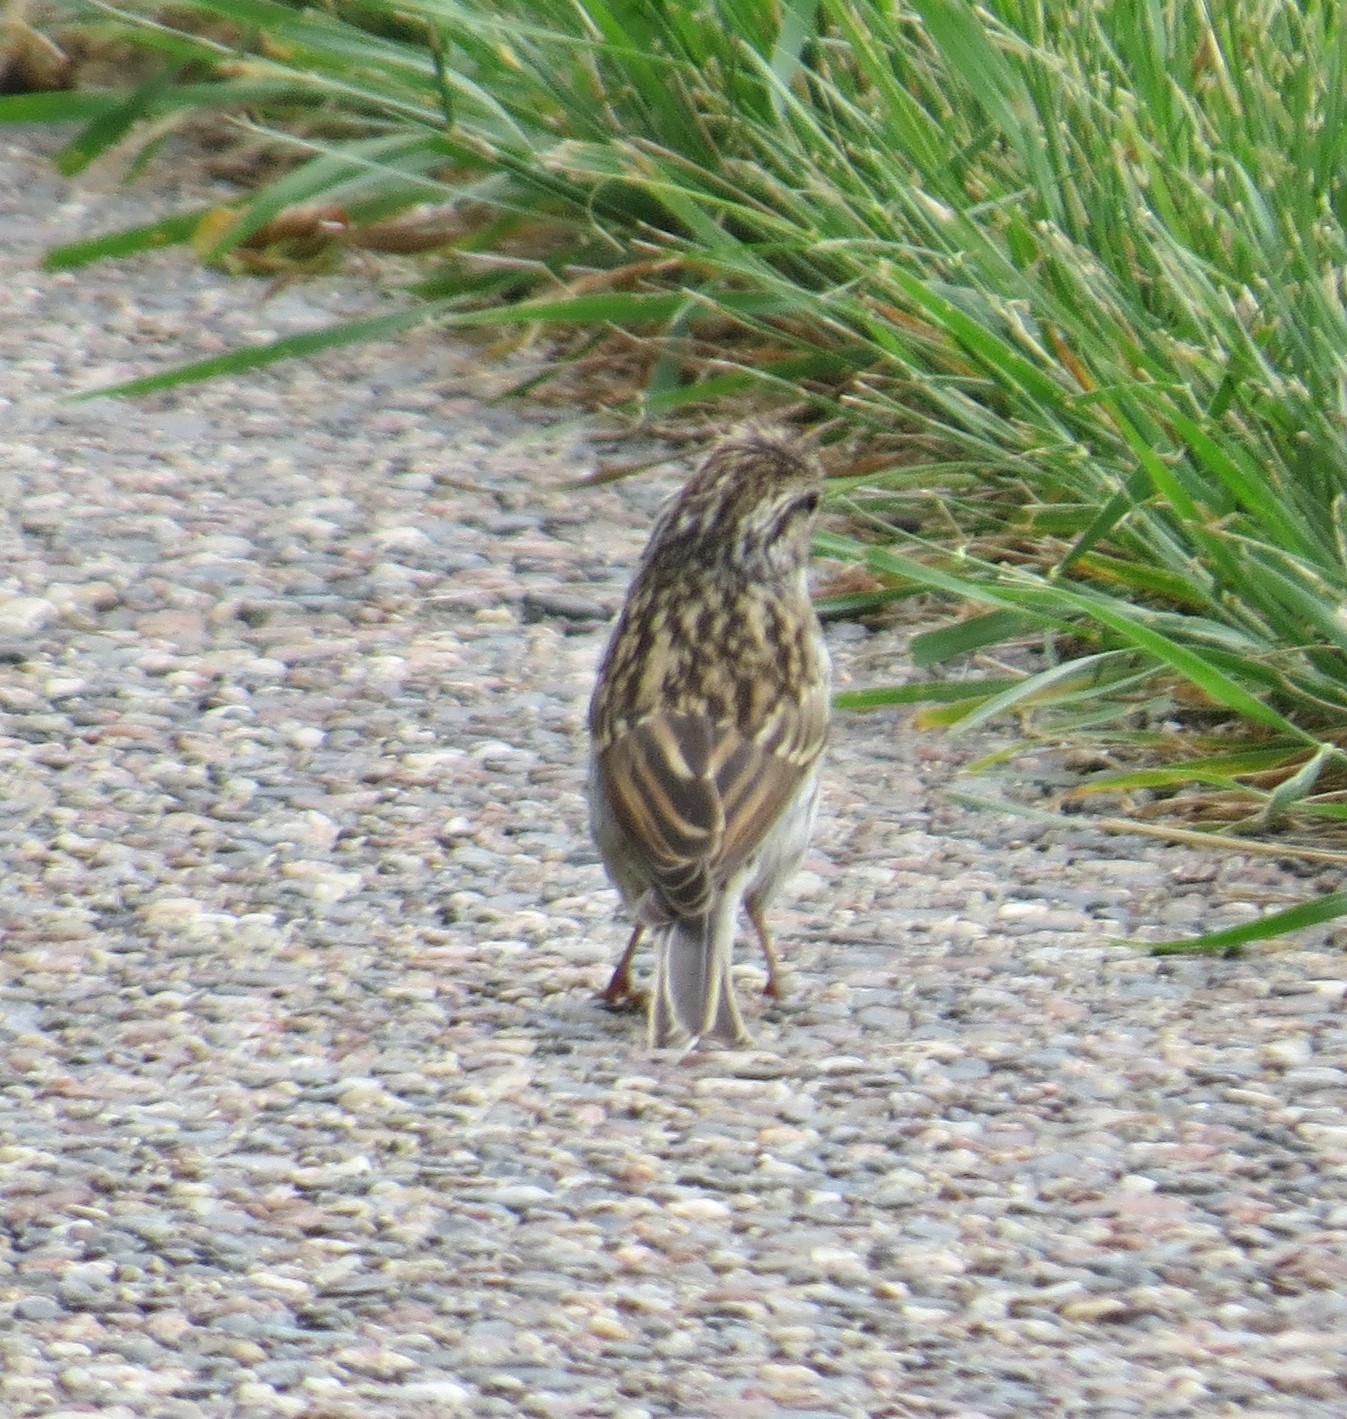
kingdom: Animalia
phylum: Chordata
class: Aves
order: Passeriformes
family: Passerellidae
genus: Spizella
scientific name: Spizella passerina
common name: Chipping sparrow
